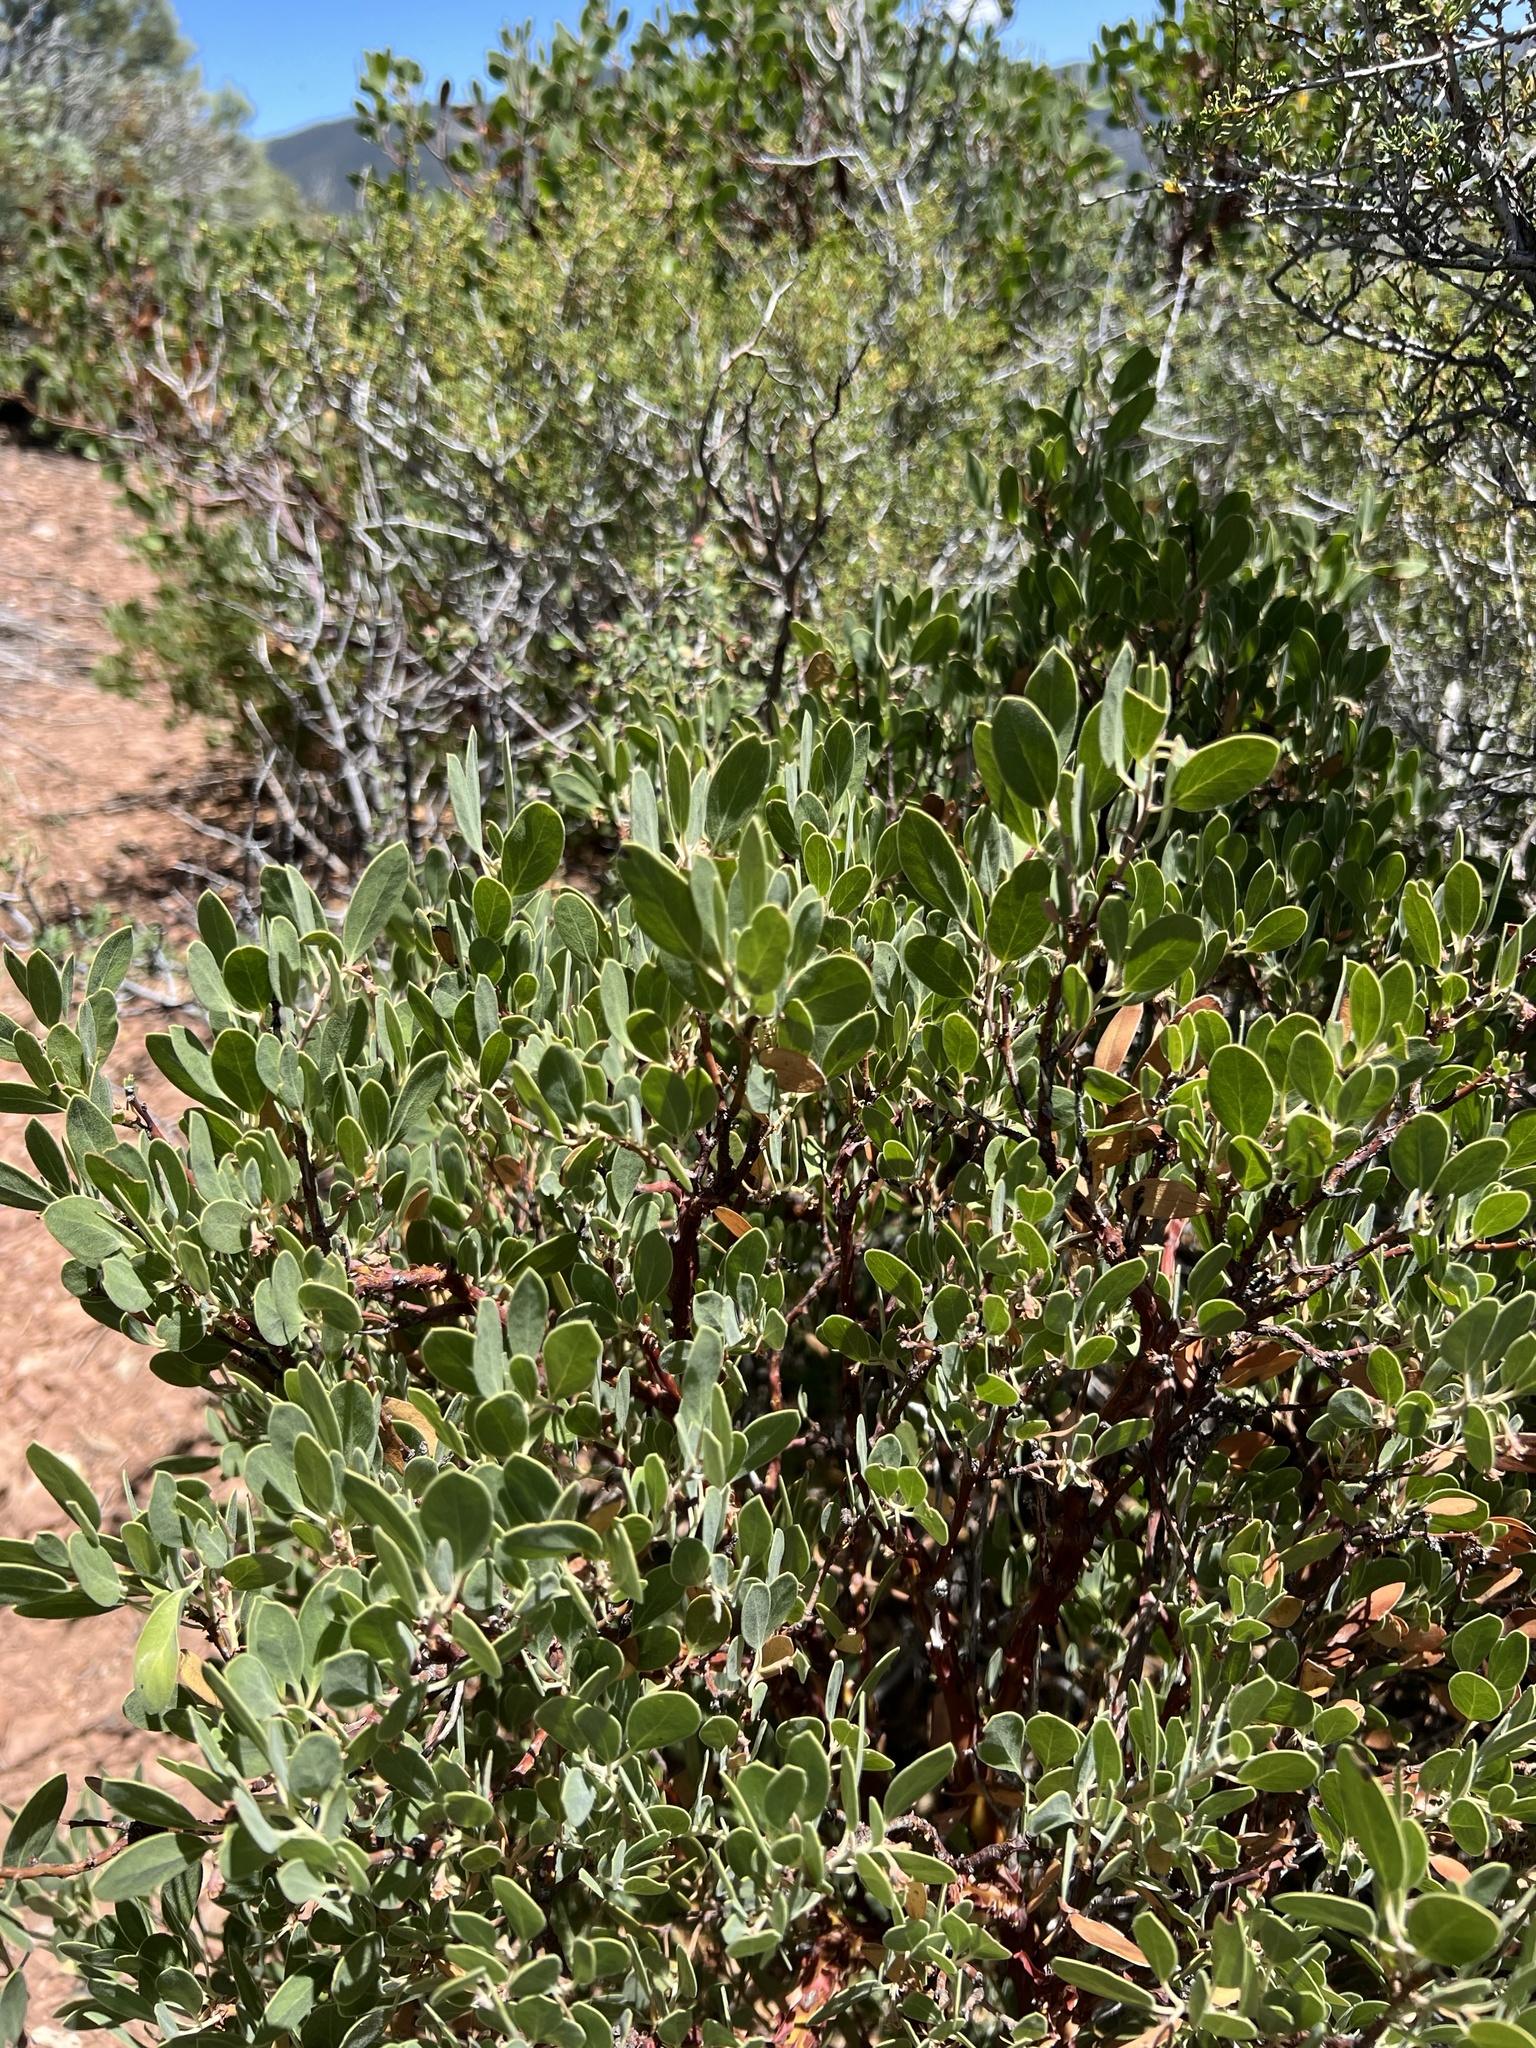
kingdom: Plantae
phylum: Tracheophyta
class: Magnoliopsida
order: Ericales
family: Ericaceae
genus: Arctostaphylos
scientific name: Arctostaphylos pungens
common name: Mexican manzanita
